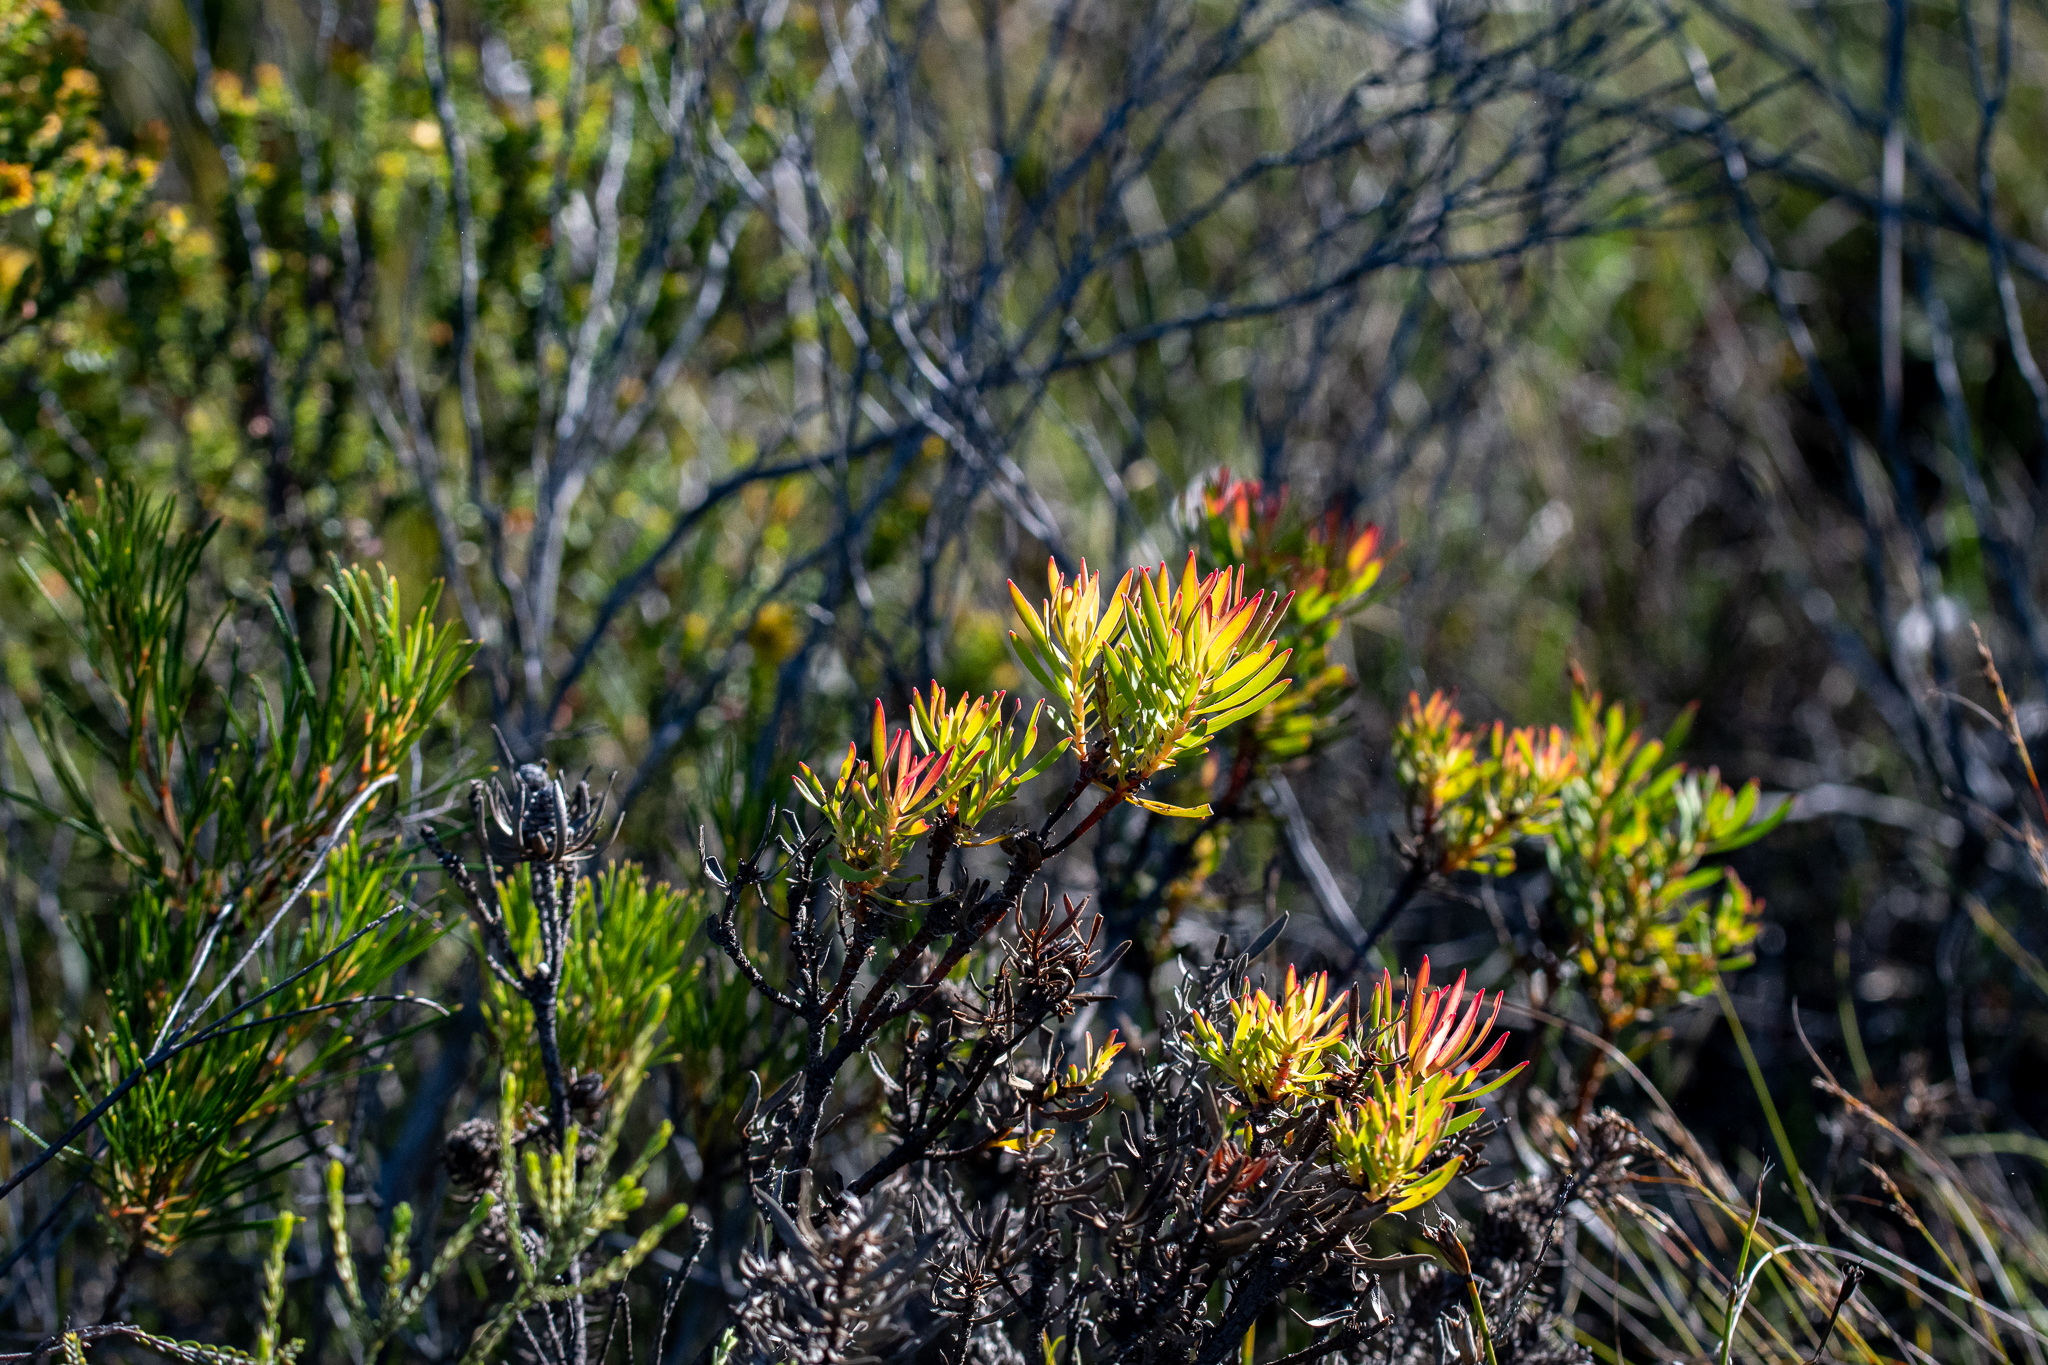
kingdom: Plantae
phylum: Tracheophyta
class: Magnoliopsida
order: Proteales
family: Proteaceae
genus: Leucadendron
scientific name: Leucadendron salignum
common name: Common sunshine conebush
